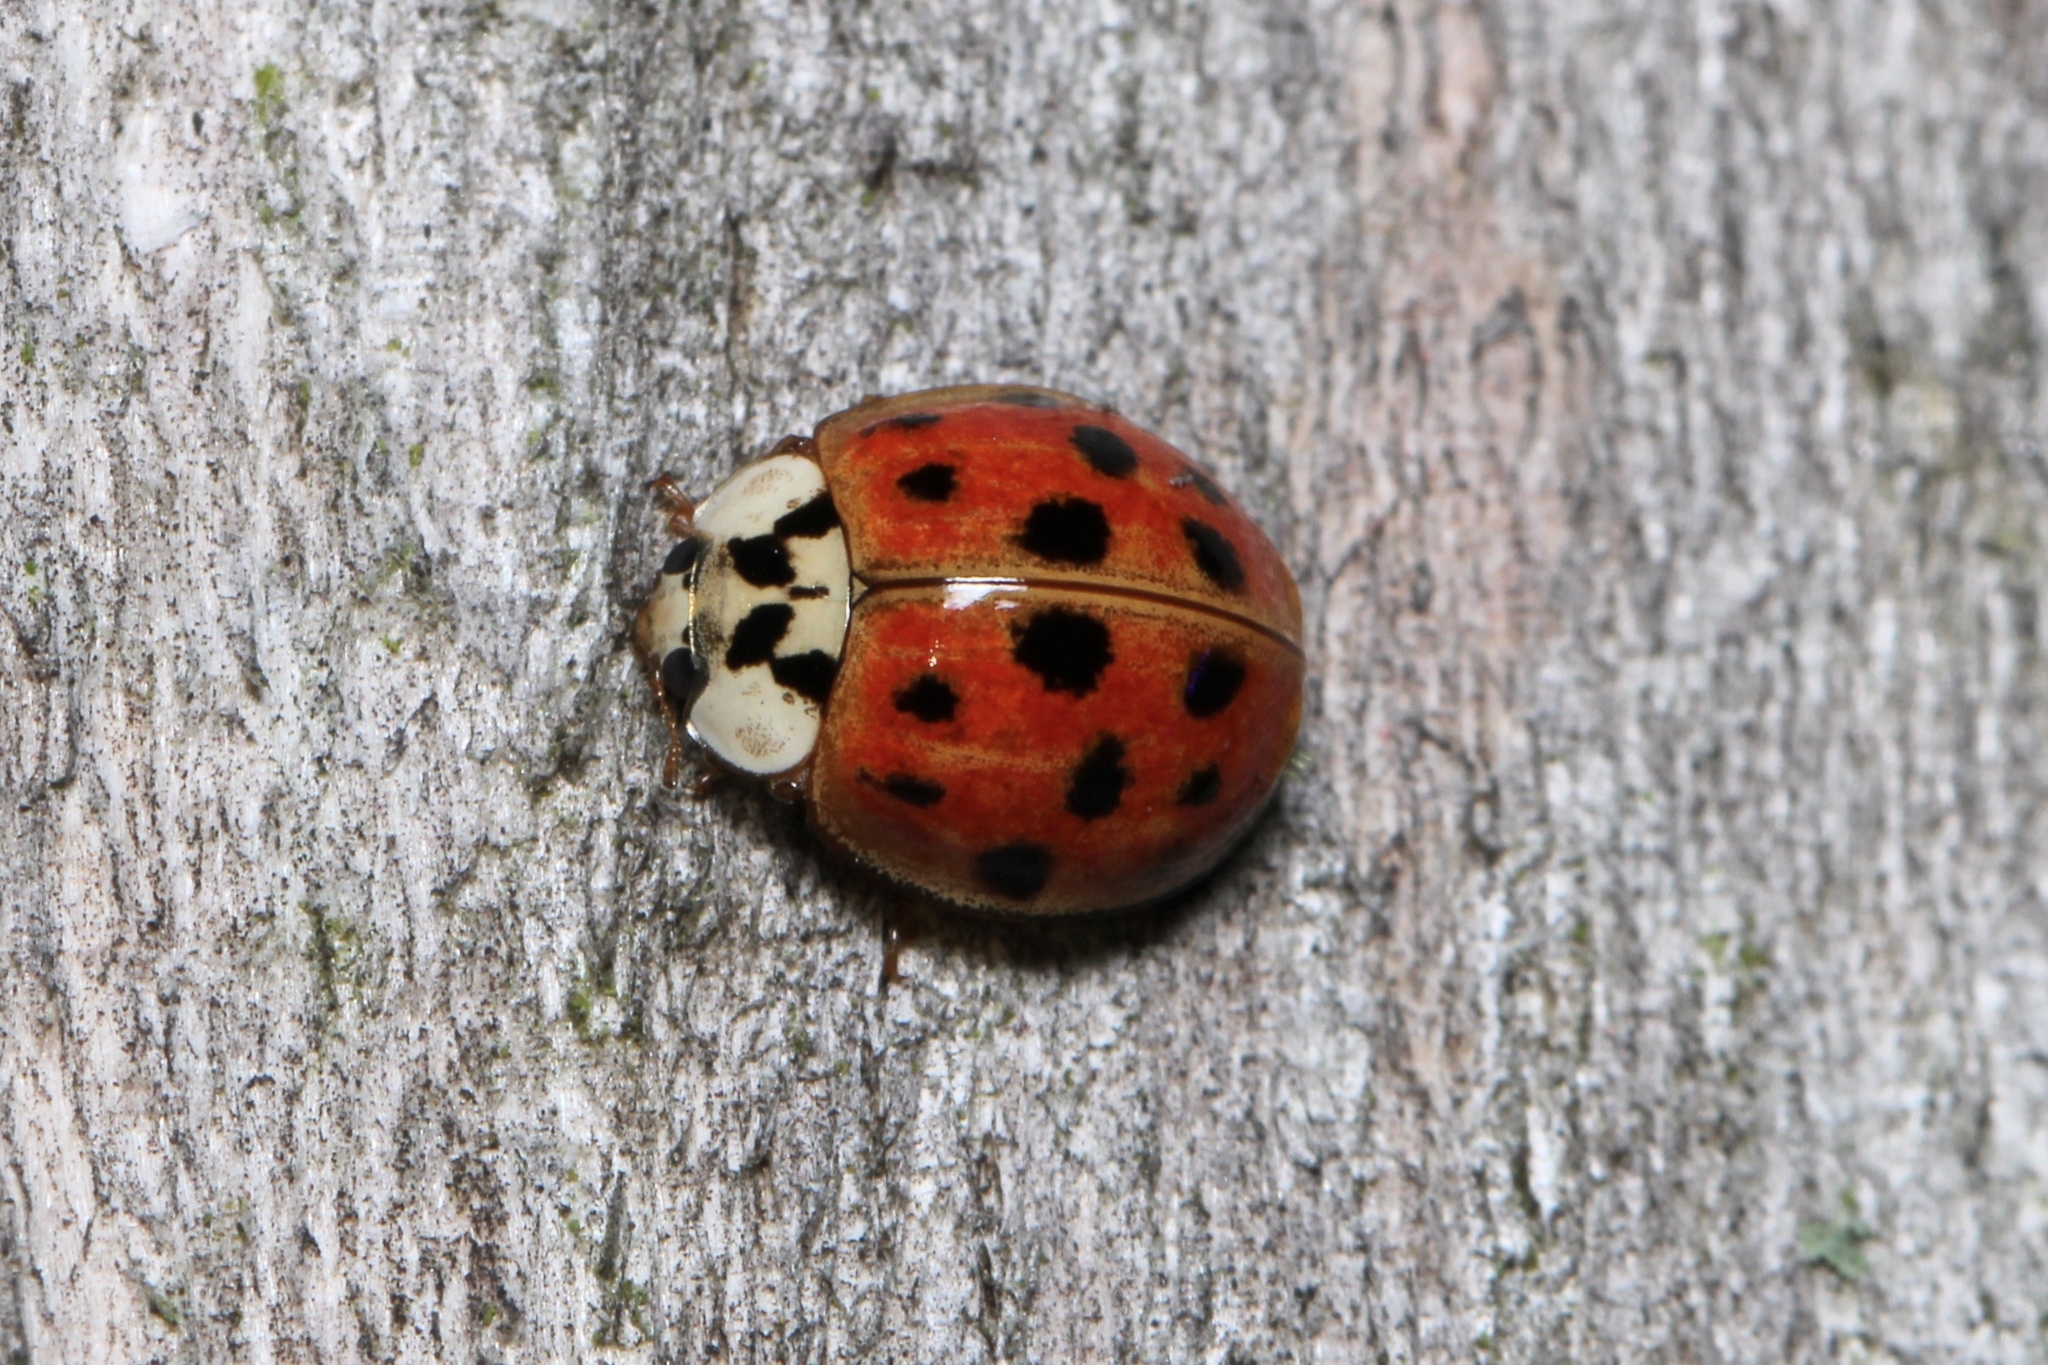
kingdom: Animalia
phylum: Arthropoda
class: Insecta
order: Coleoptera
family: Coccinellidae
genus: Harmonia
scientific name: Harmonia axyridis
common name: Harlequin ladybird
